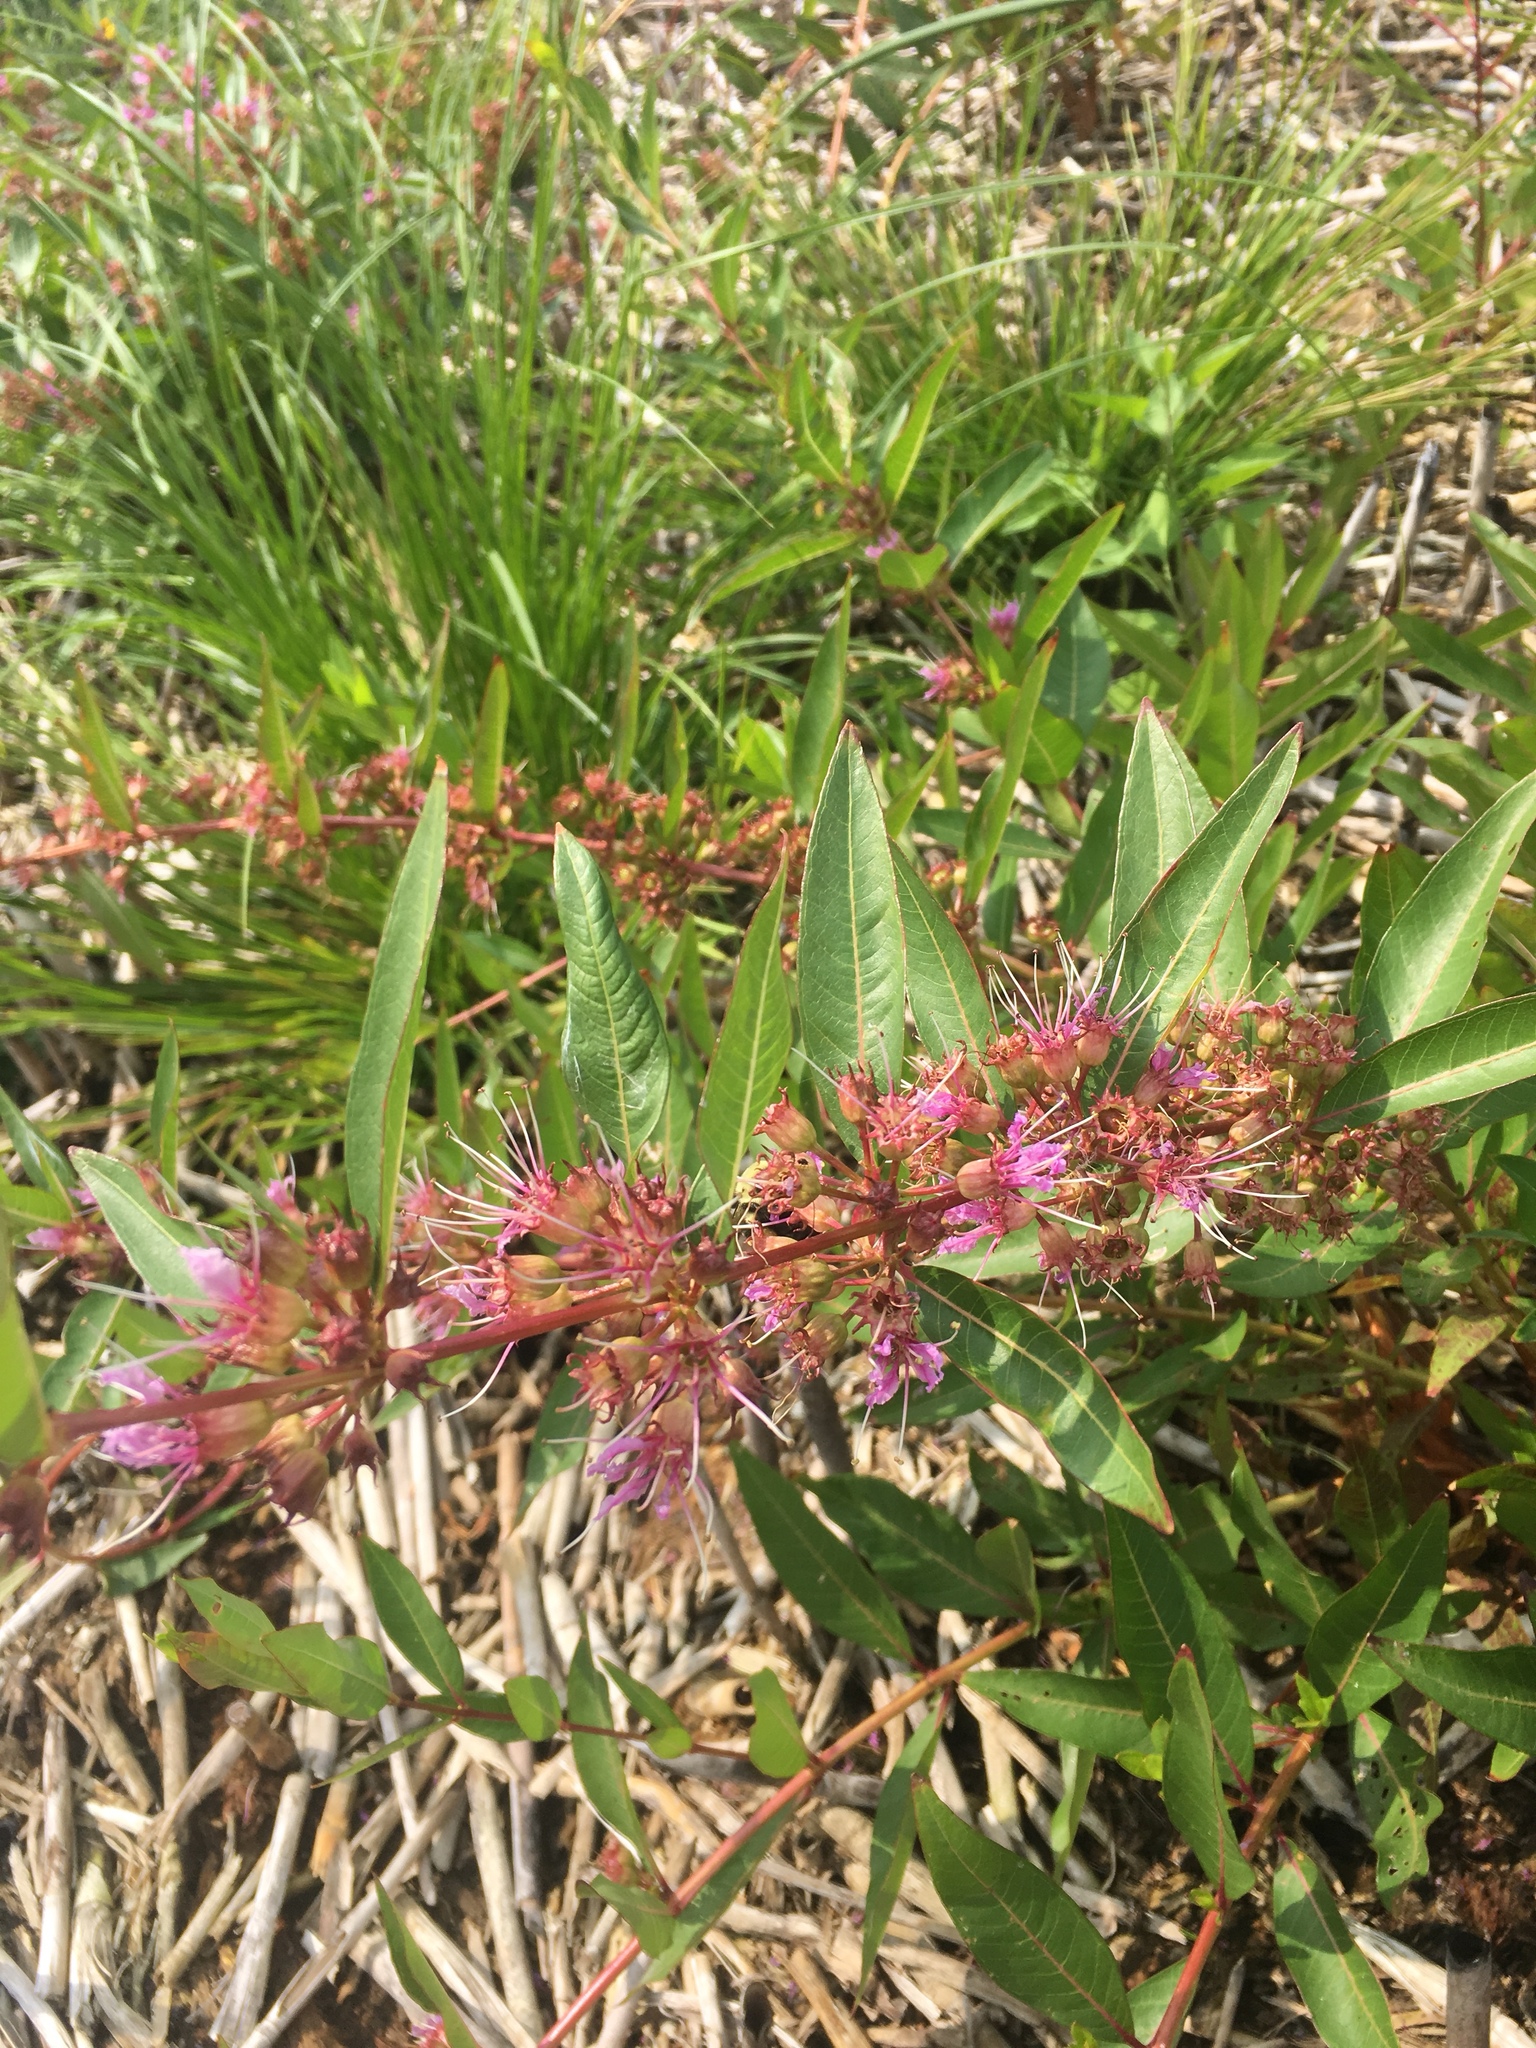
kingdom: Plantae
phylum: Tracheophyta
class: Magnoliopsida
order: Myrtales
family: Lythraceae
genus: Decodon
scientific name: Decodon verticillatus
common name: Hairy swamp loosestrife
